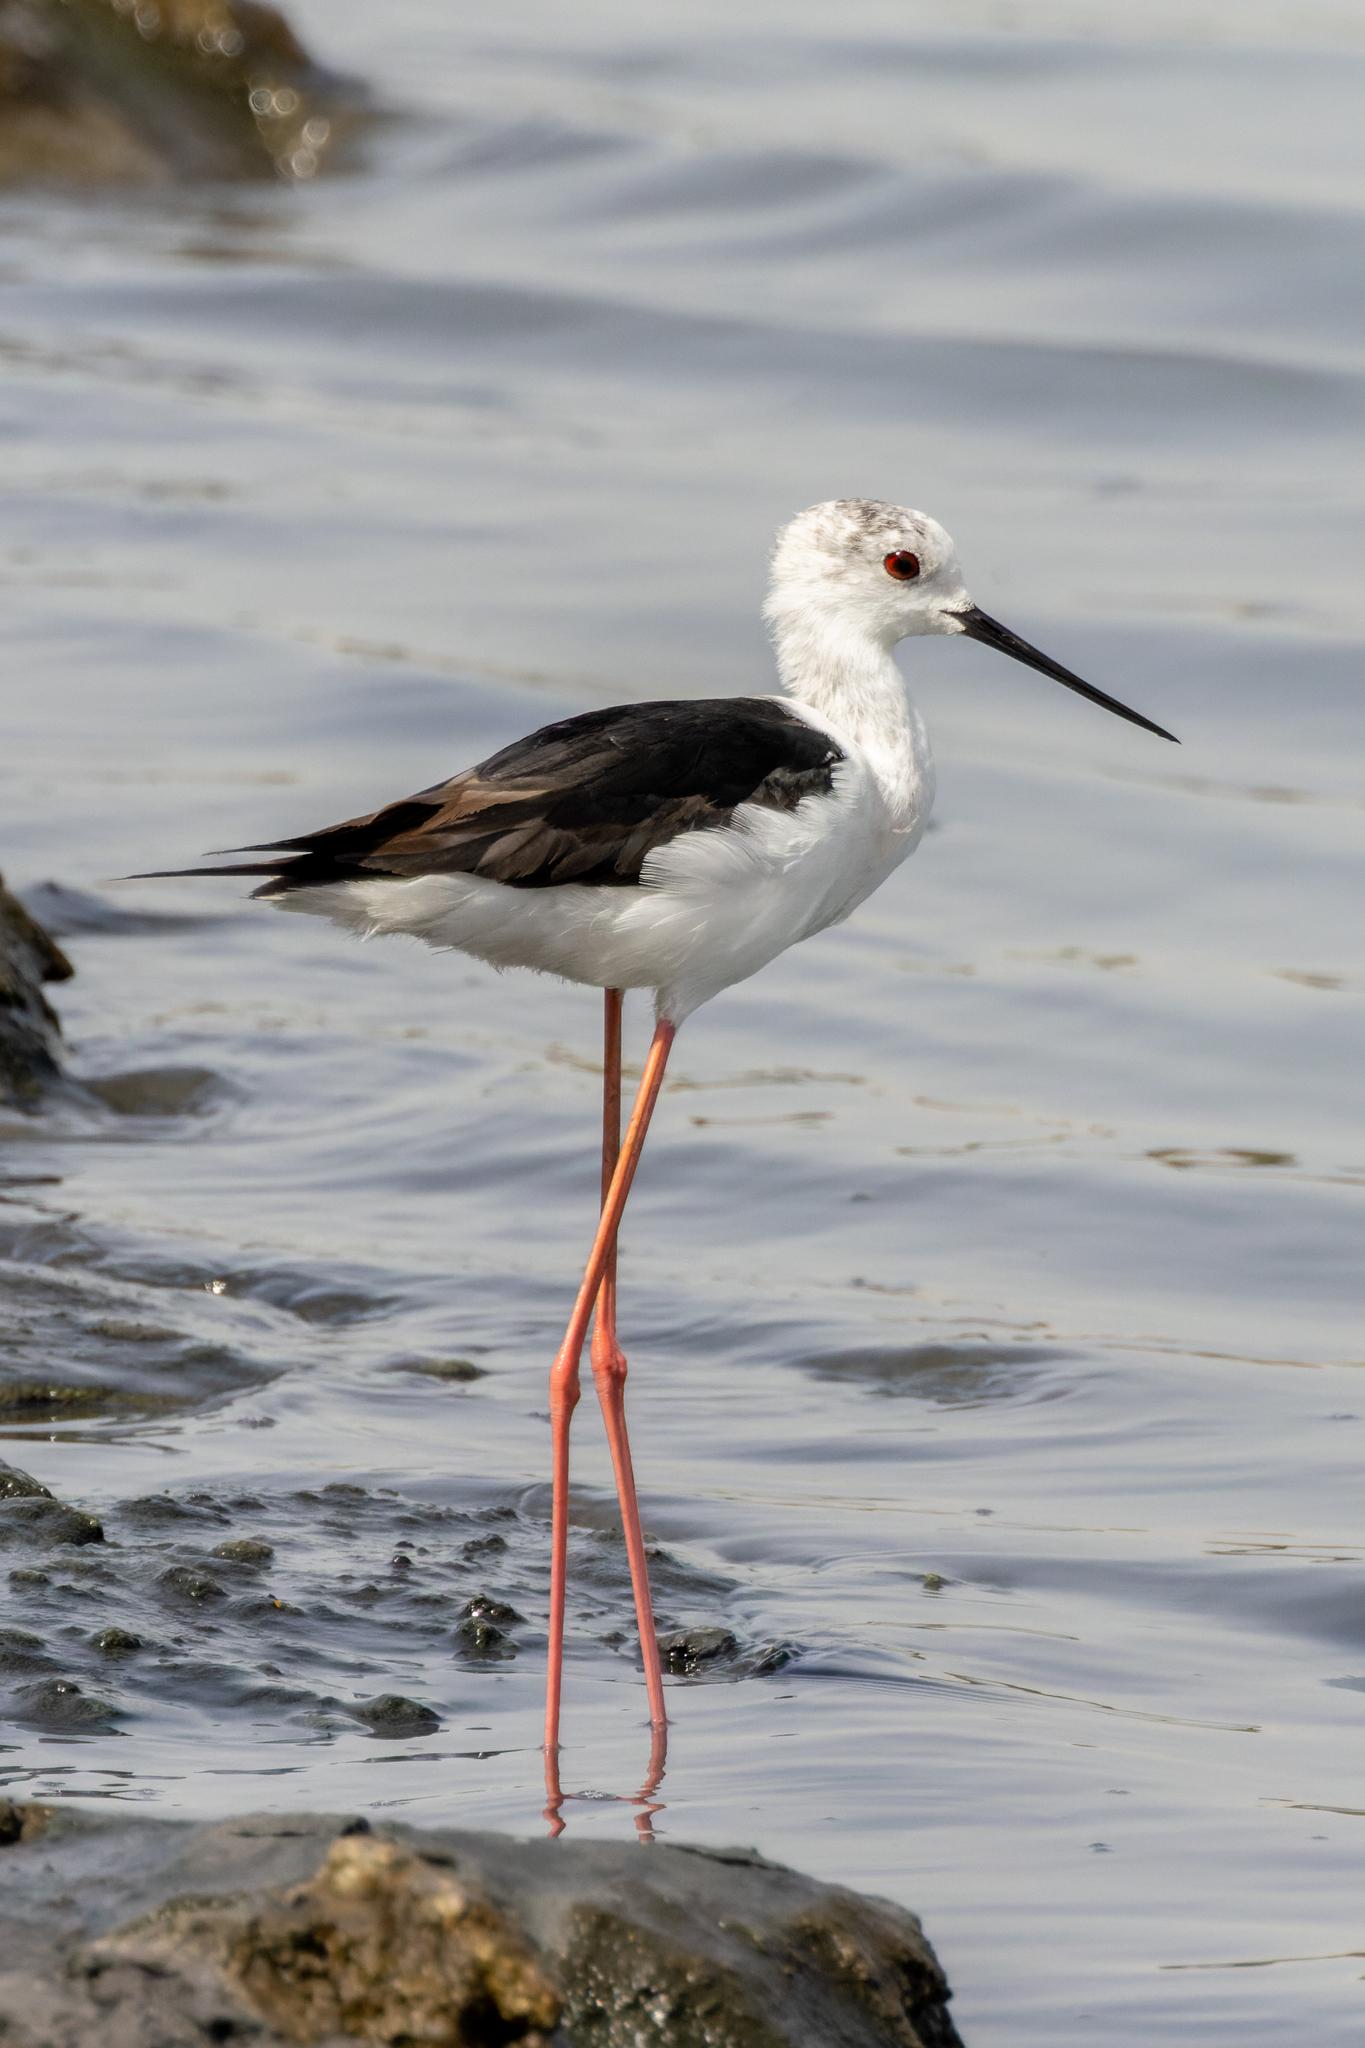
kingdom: Animalia
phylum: Chordata
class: Aves
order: Charadriiformes
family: Recurvirostridae
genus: Himantopus
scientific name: Himantopus himantopus
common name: Black-winged stilt
